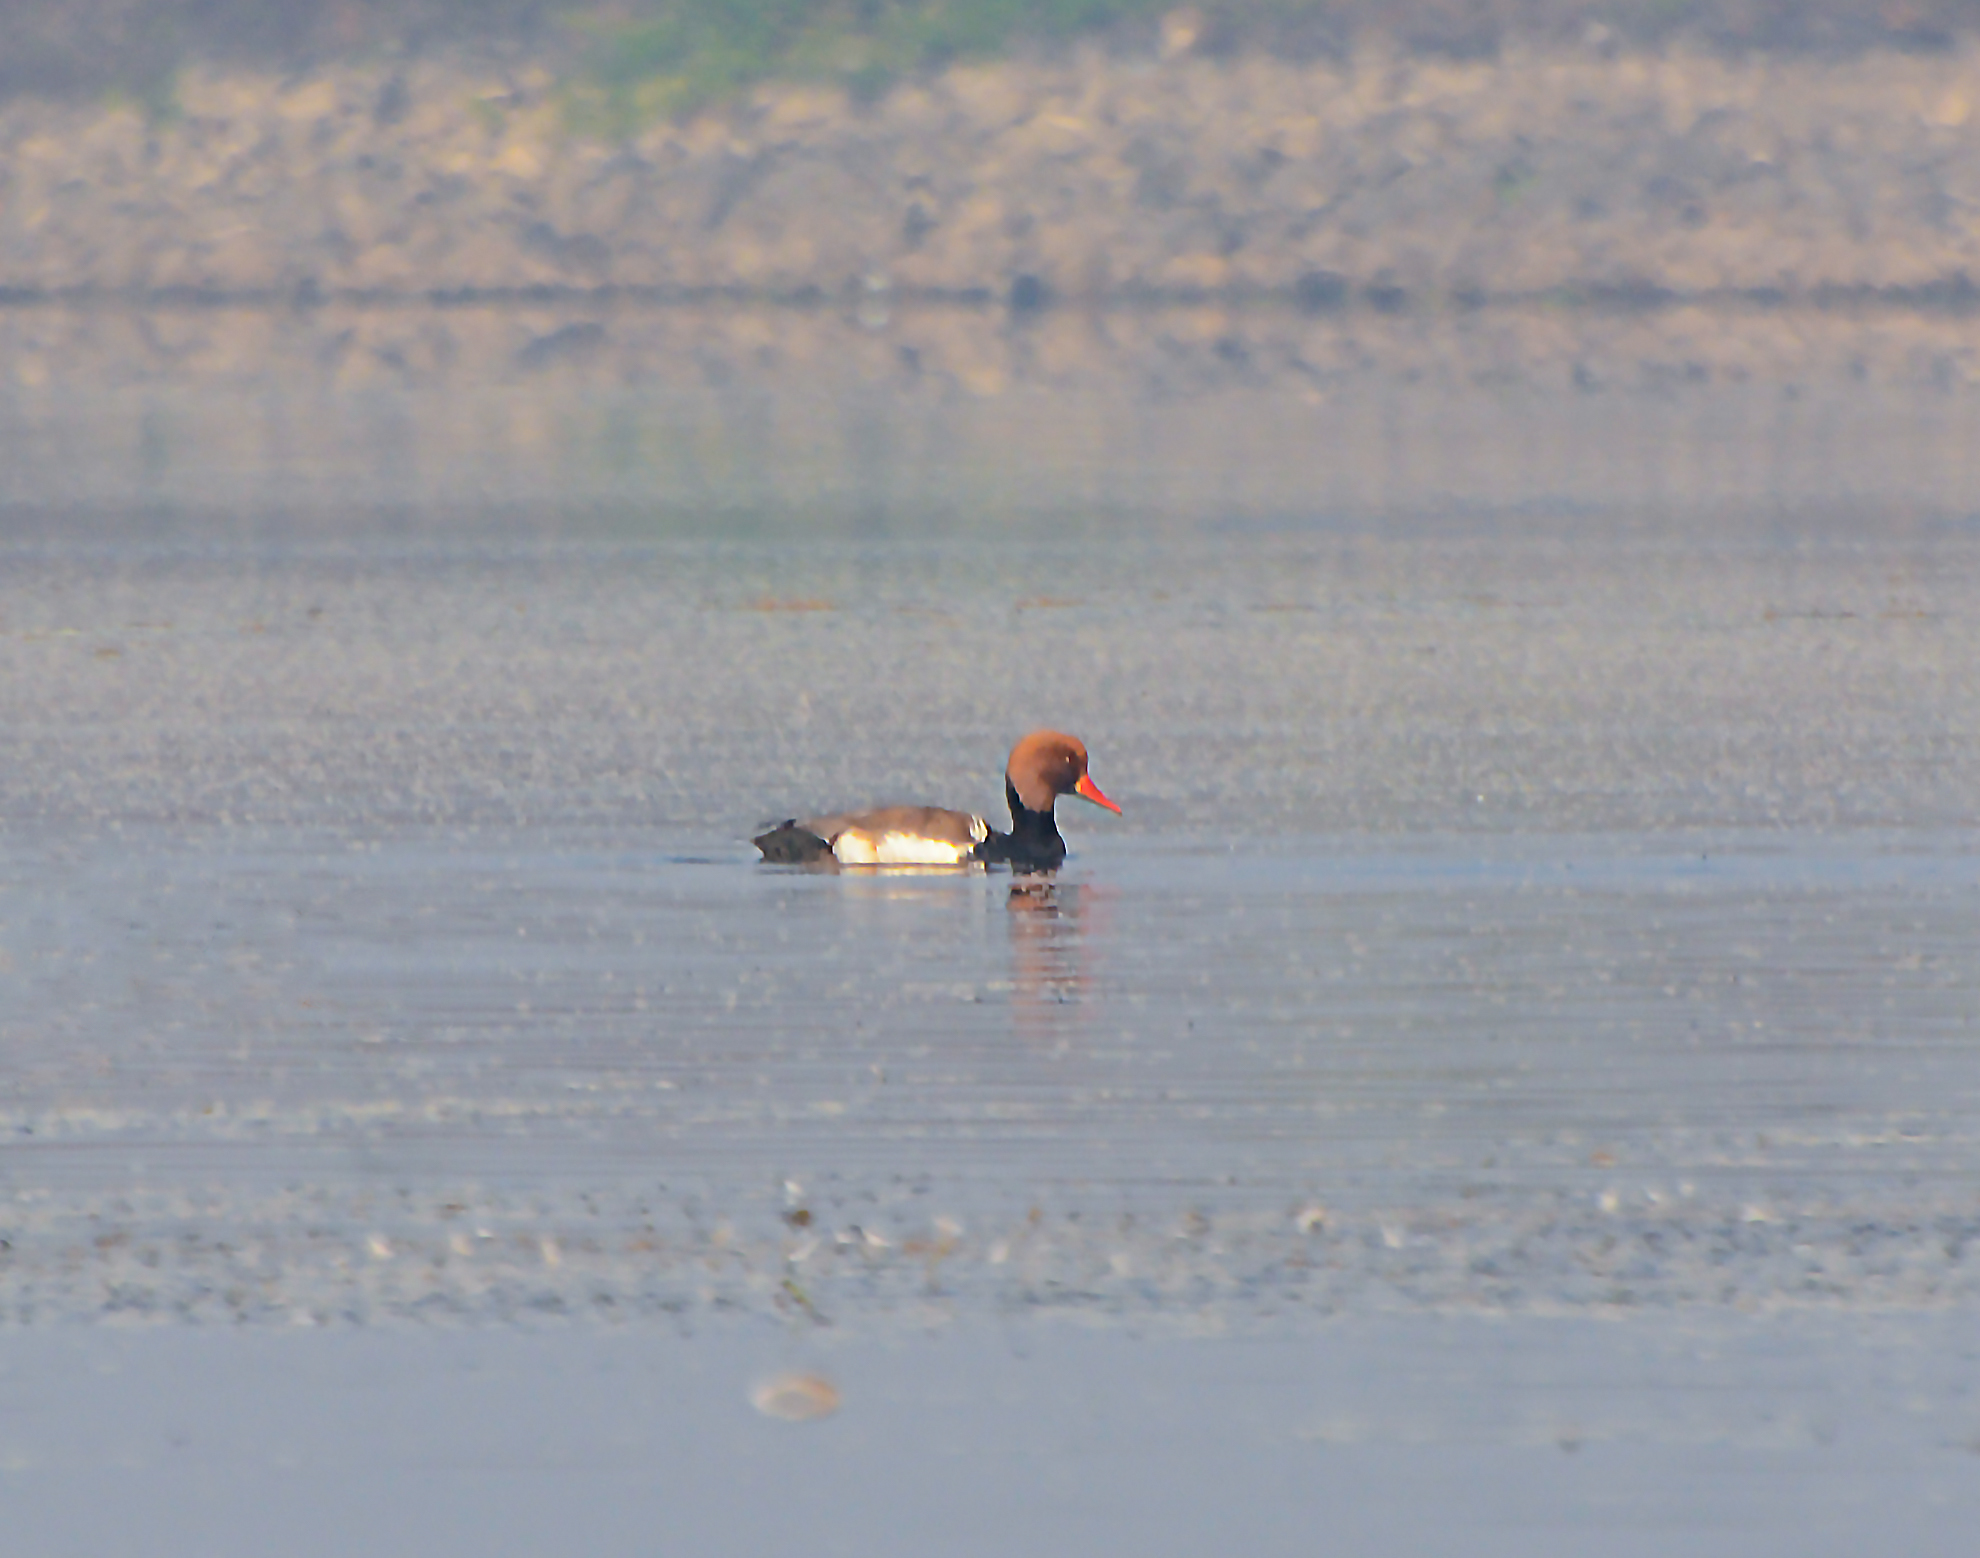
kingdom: Animalia
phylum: Chordata
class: Aves
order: Anseriformes
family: Anatidae
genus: Netta
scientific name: Netta rufina
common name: Red-crested pochard
